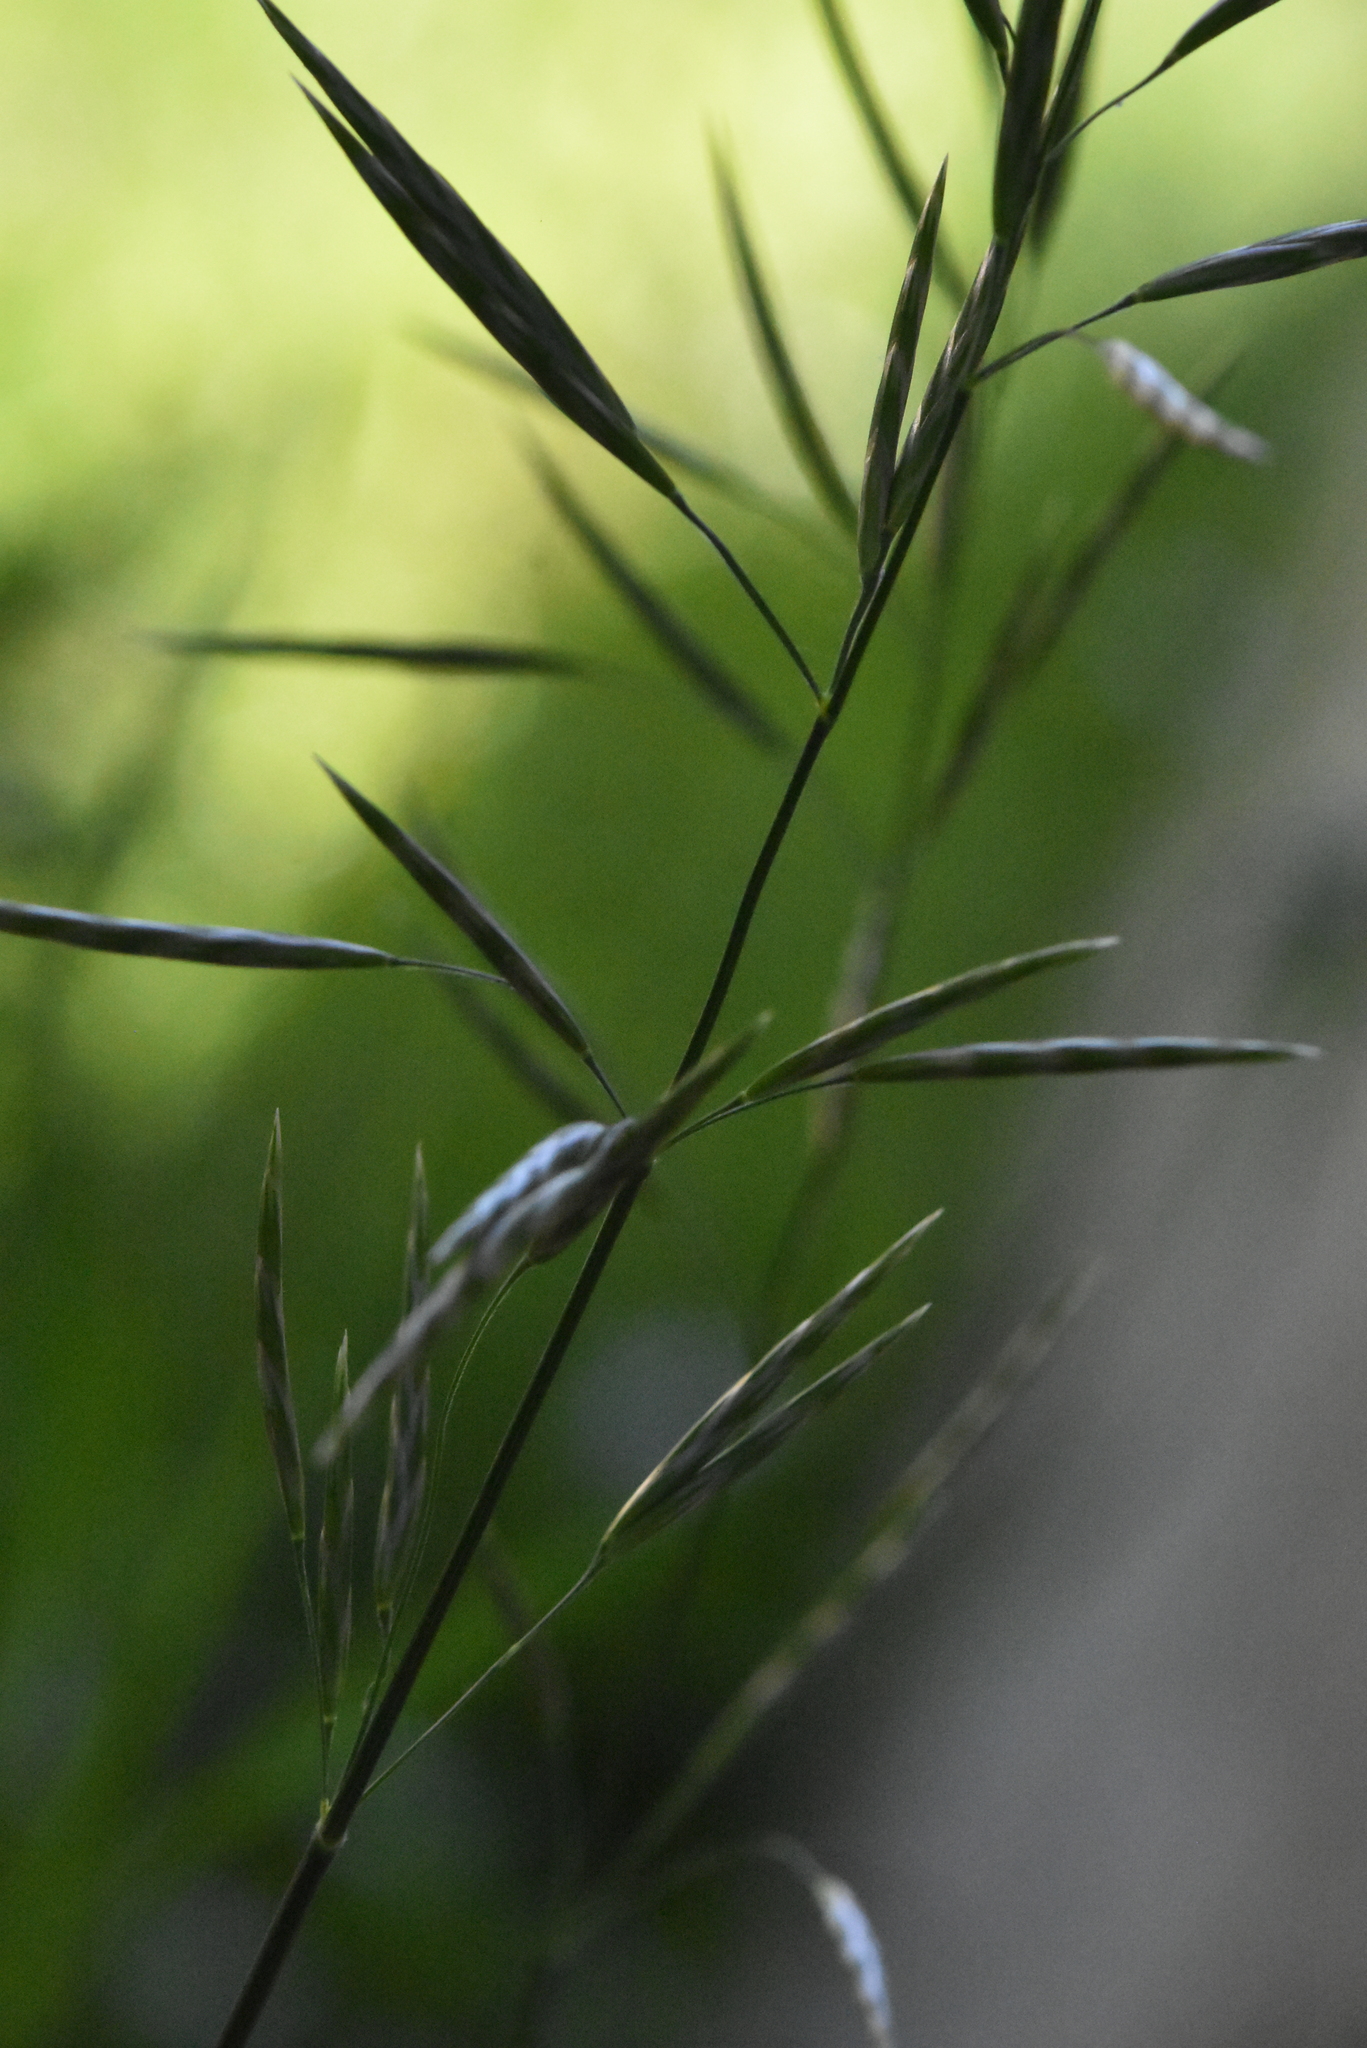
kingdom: Plantae
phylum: Tracheophyta
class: Liliopsida
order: Poales
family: Poaceae
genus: Bromus
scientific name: Bromus inermis
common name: Smooth brome
